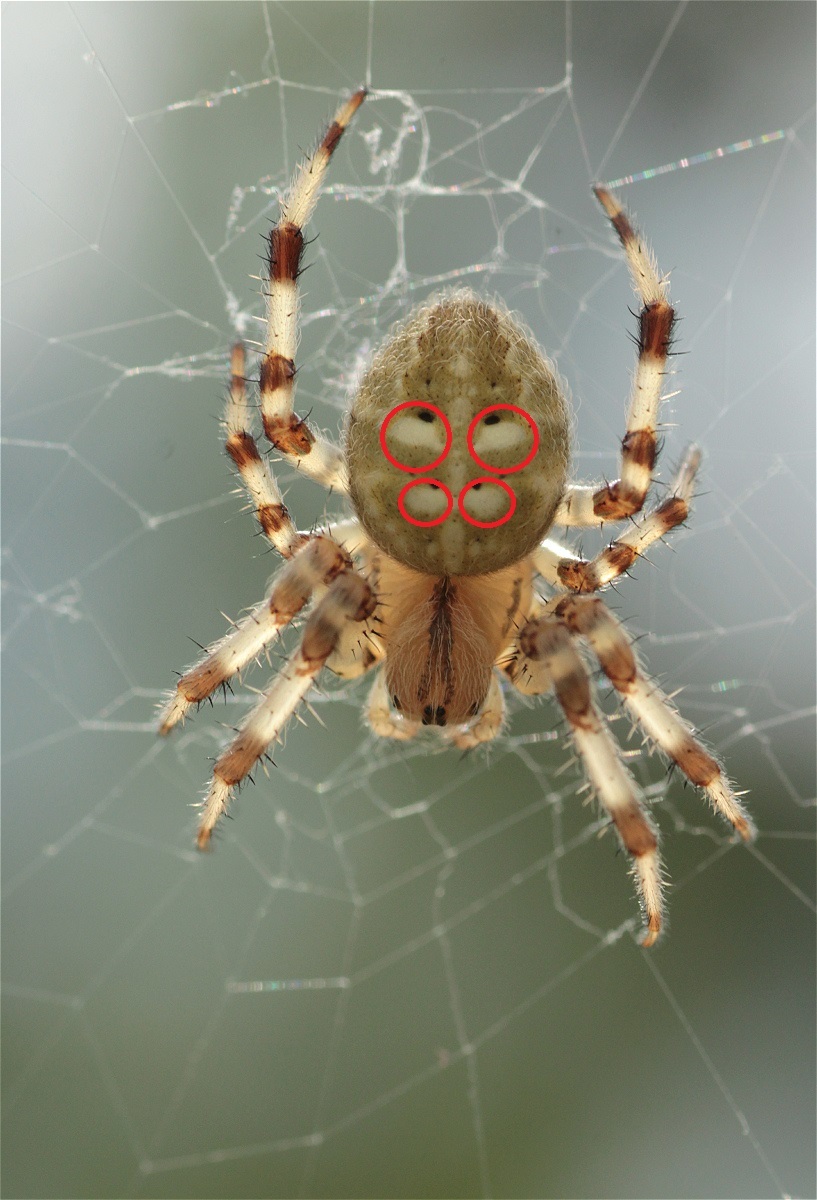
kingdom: Animalia
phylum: Arthropoda
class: Arachnida
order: Araneae
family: Araneidae
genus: Araneus
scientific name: Araneus quadratus
